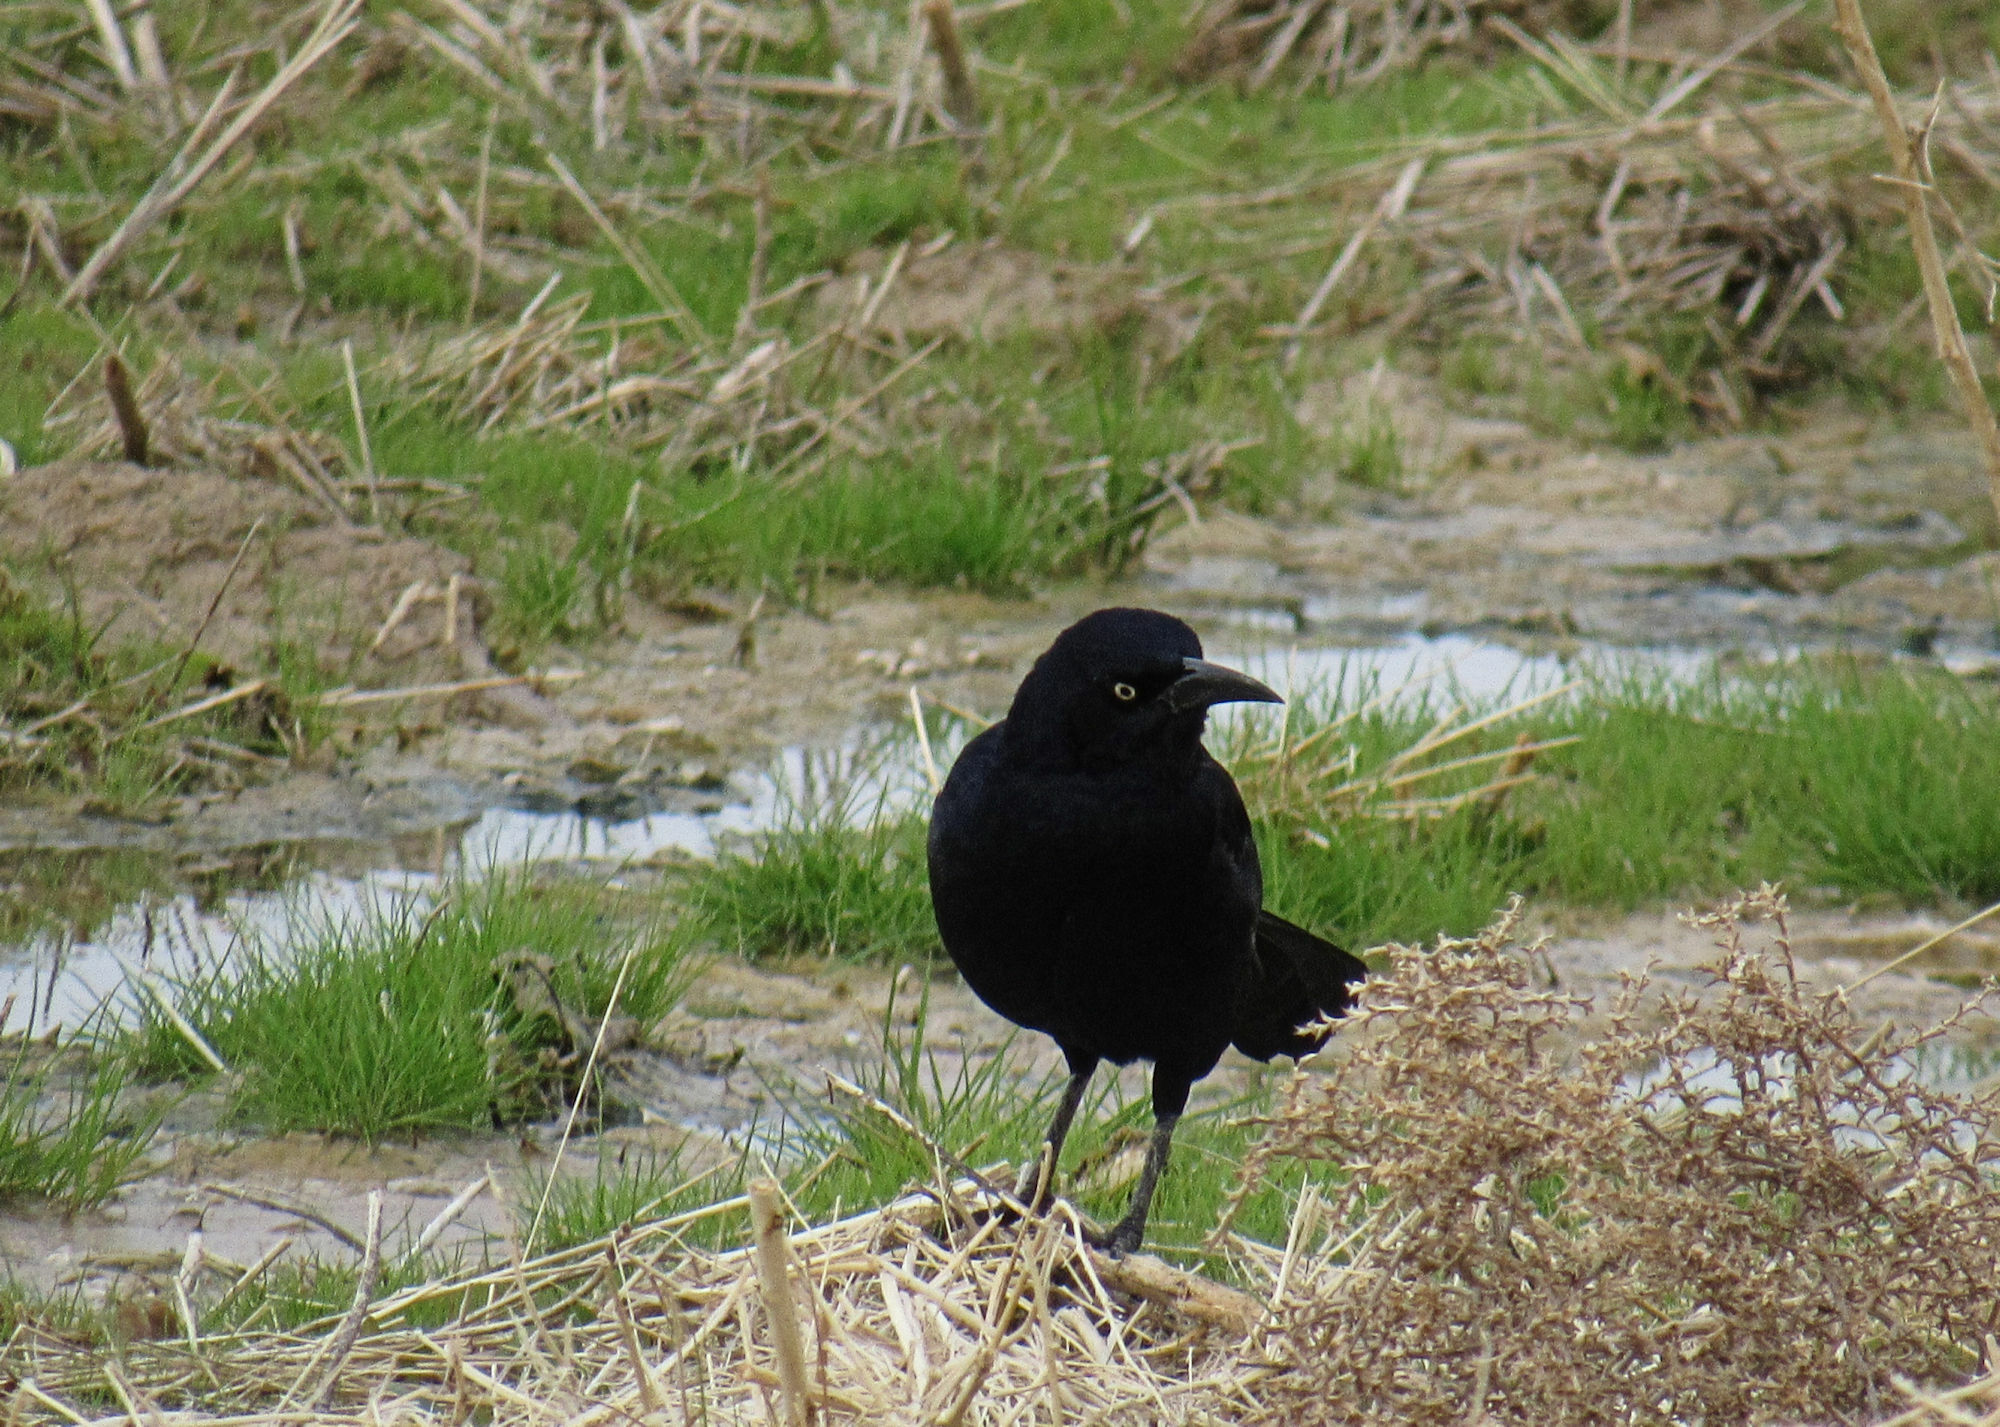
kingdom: Animalia
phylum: Chordata
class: Aves
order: Passeriformes
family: Icteridae
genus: Quiscalus
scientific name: Quiscalus mexicanus
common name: Great-tailed grackle
